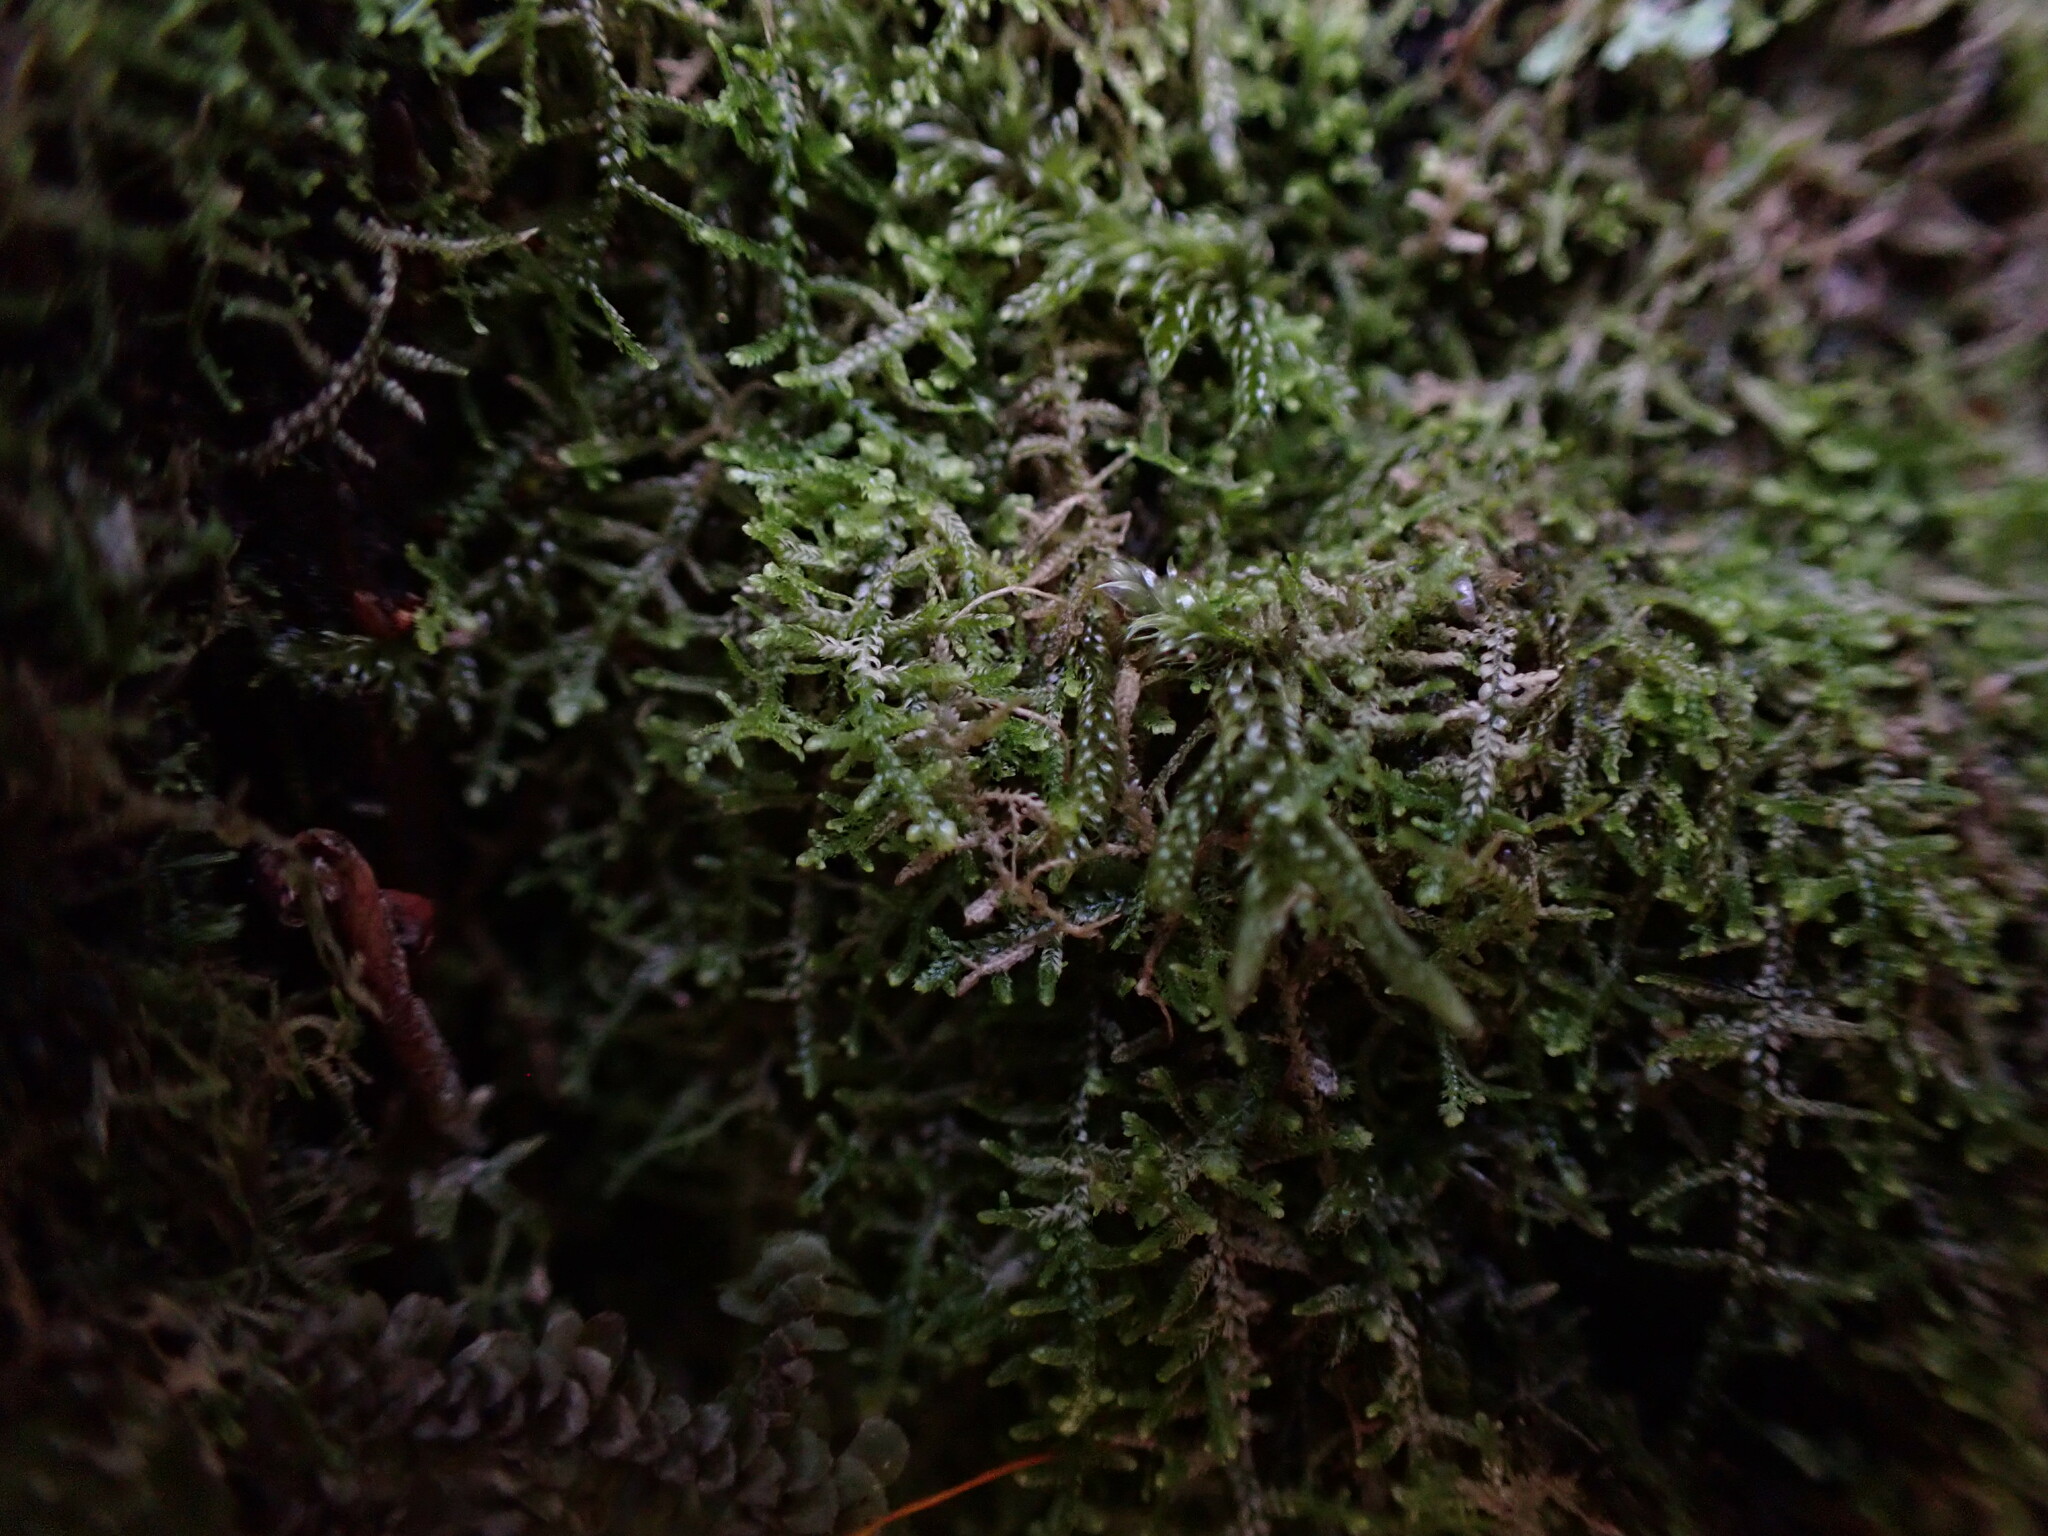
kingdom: Plantae
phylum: Marchantiophyta
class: Jungermanniopsida
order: Jungermanniales
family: Lepidoziaceae
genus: Lepidozia
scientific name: Lepidozia reptans
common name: Creeping fingerwort
